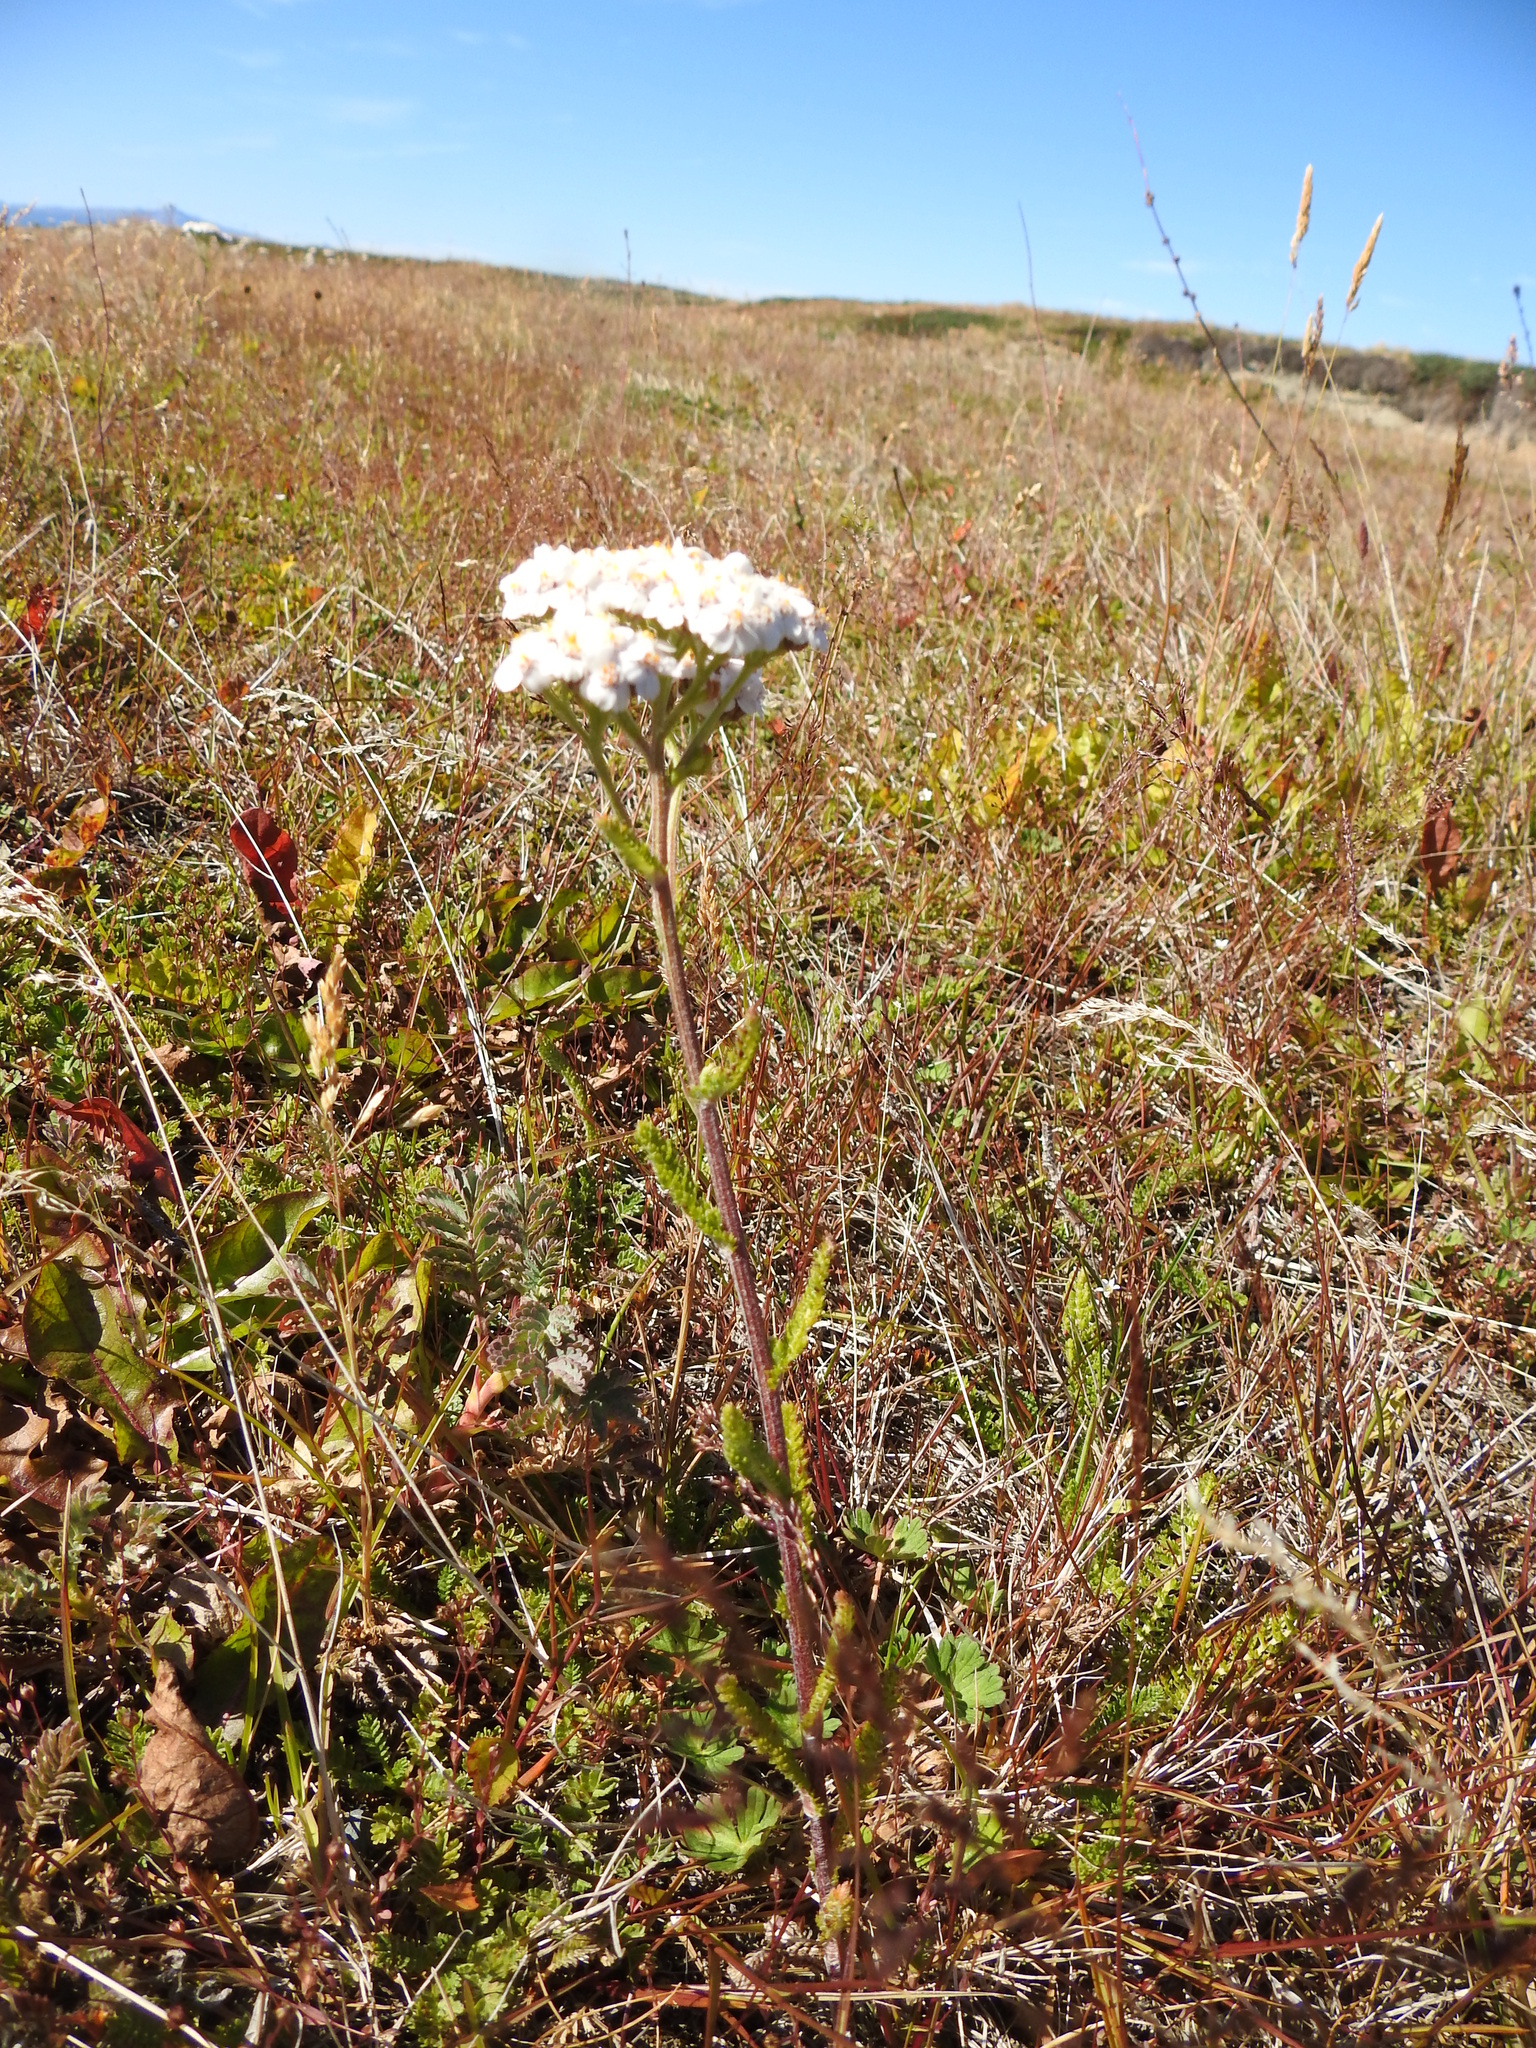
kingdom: Plantae
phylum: Tracheophyta
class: Magnoliopsida
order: Asterales
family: Asteraceae
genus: Achillea
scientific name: Achillea millefolium
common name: Yarrow
